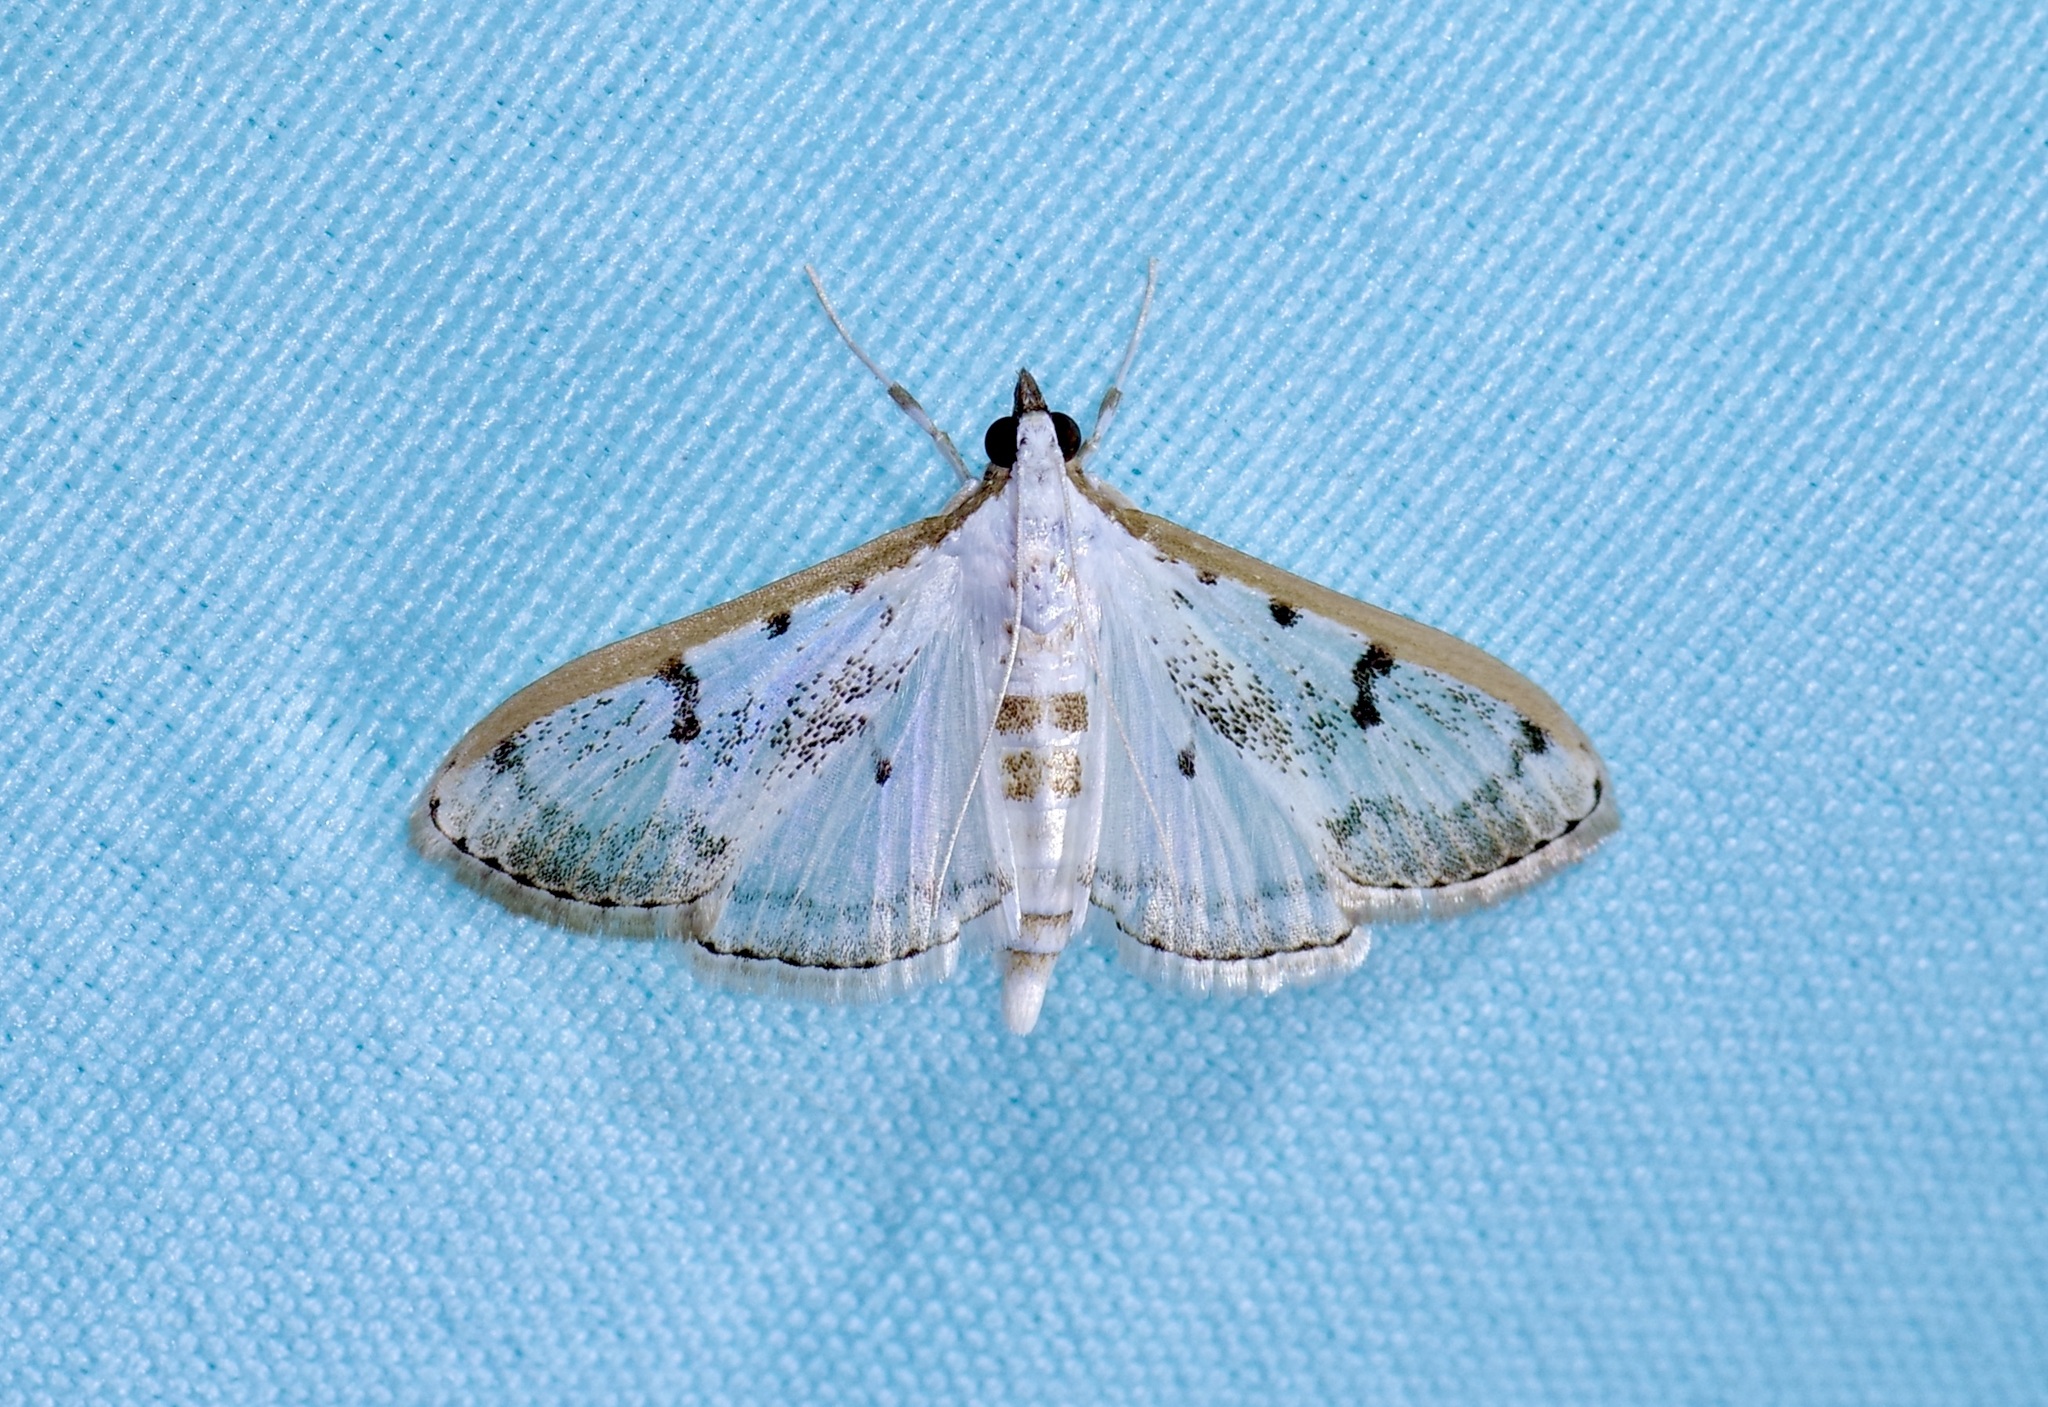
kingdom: Animalia
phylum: Arthropoda
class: Insecta
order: Lepidoptera
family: Crambidae
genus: Palpita
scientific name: Palpita gracilalis
